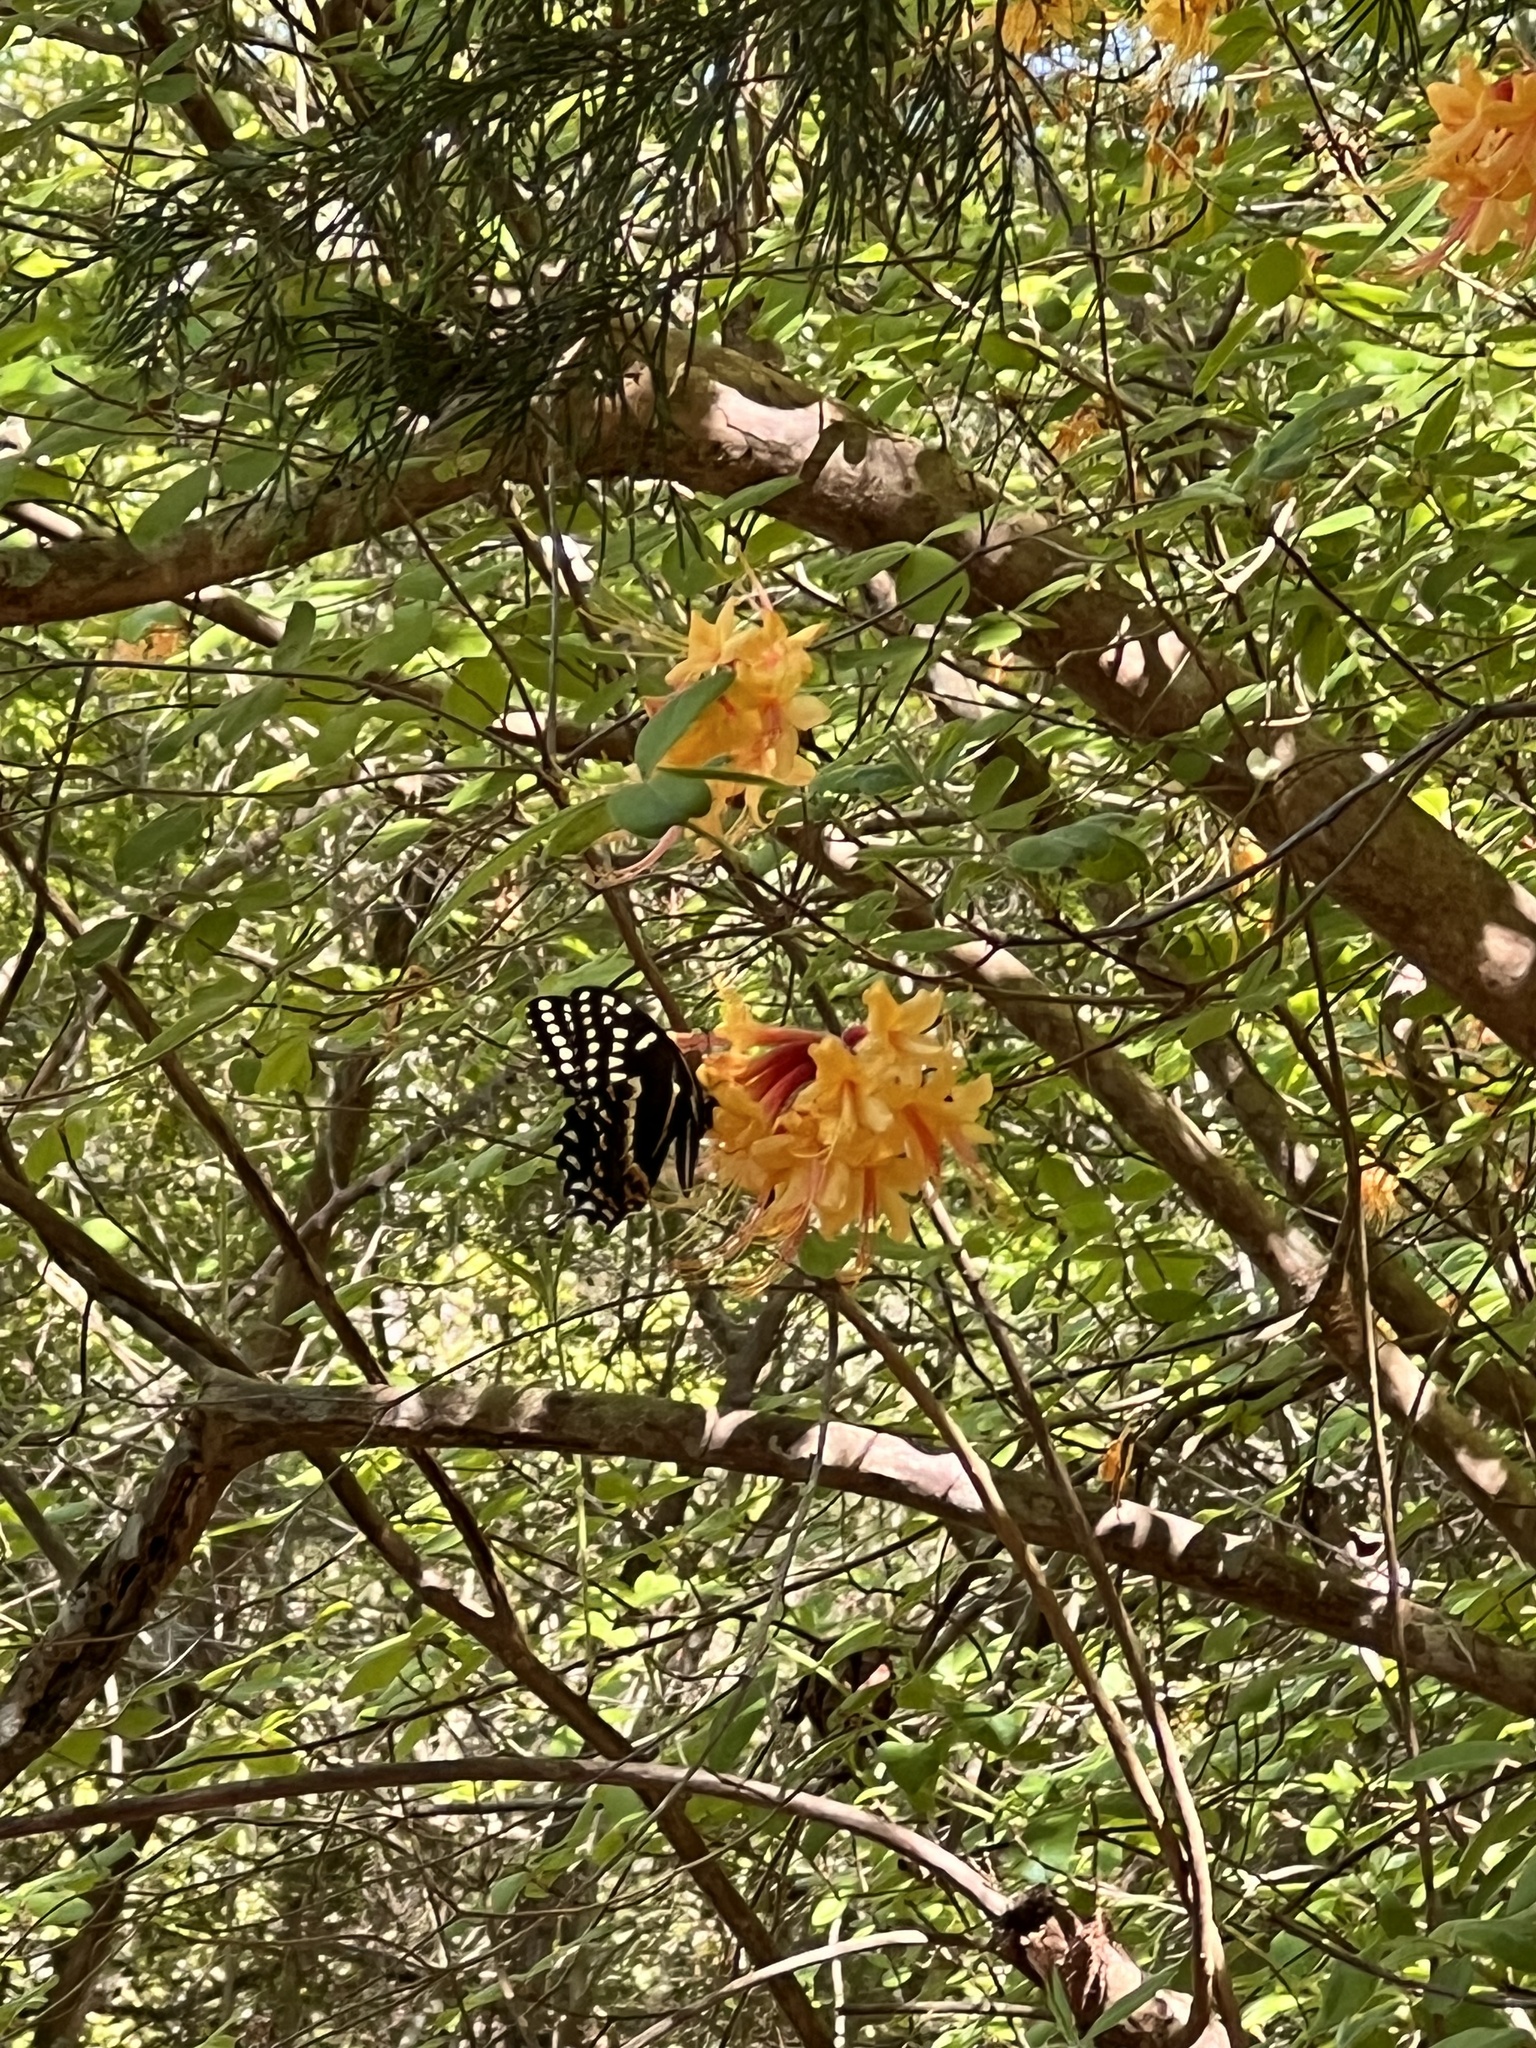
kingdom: Animalia
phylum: Arthropoda
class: Insecta
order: Lepidoptera
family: Papilionidae
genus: Papilio
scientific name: Papilio palamedes
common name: Palamedes swallowtail
